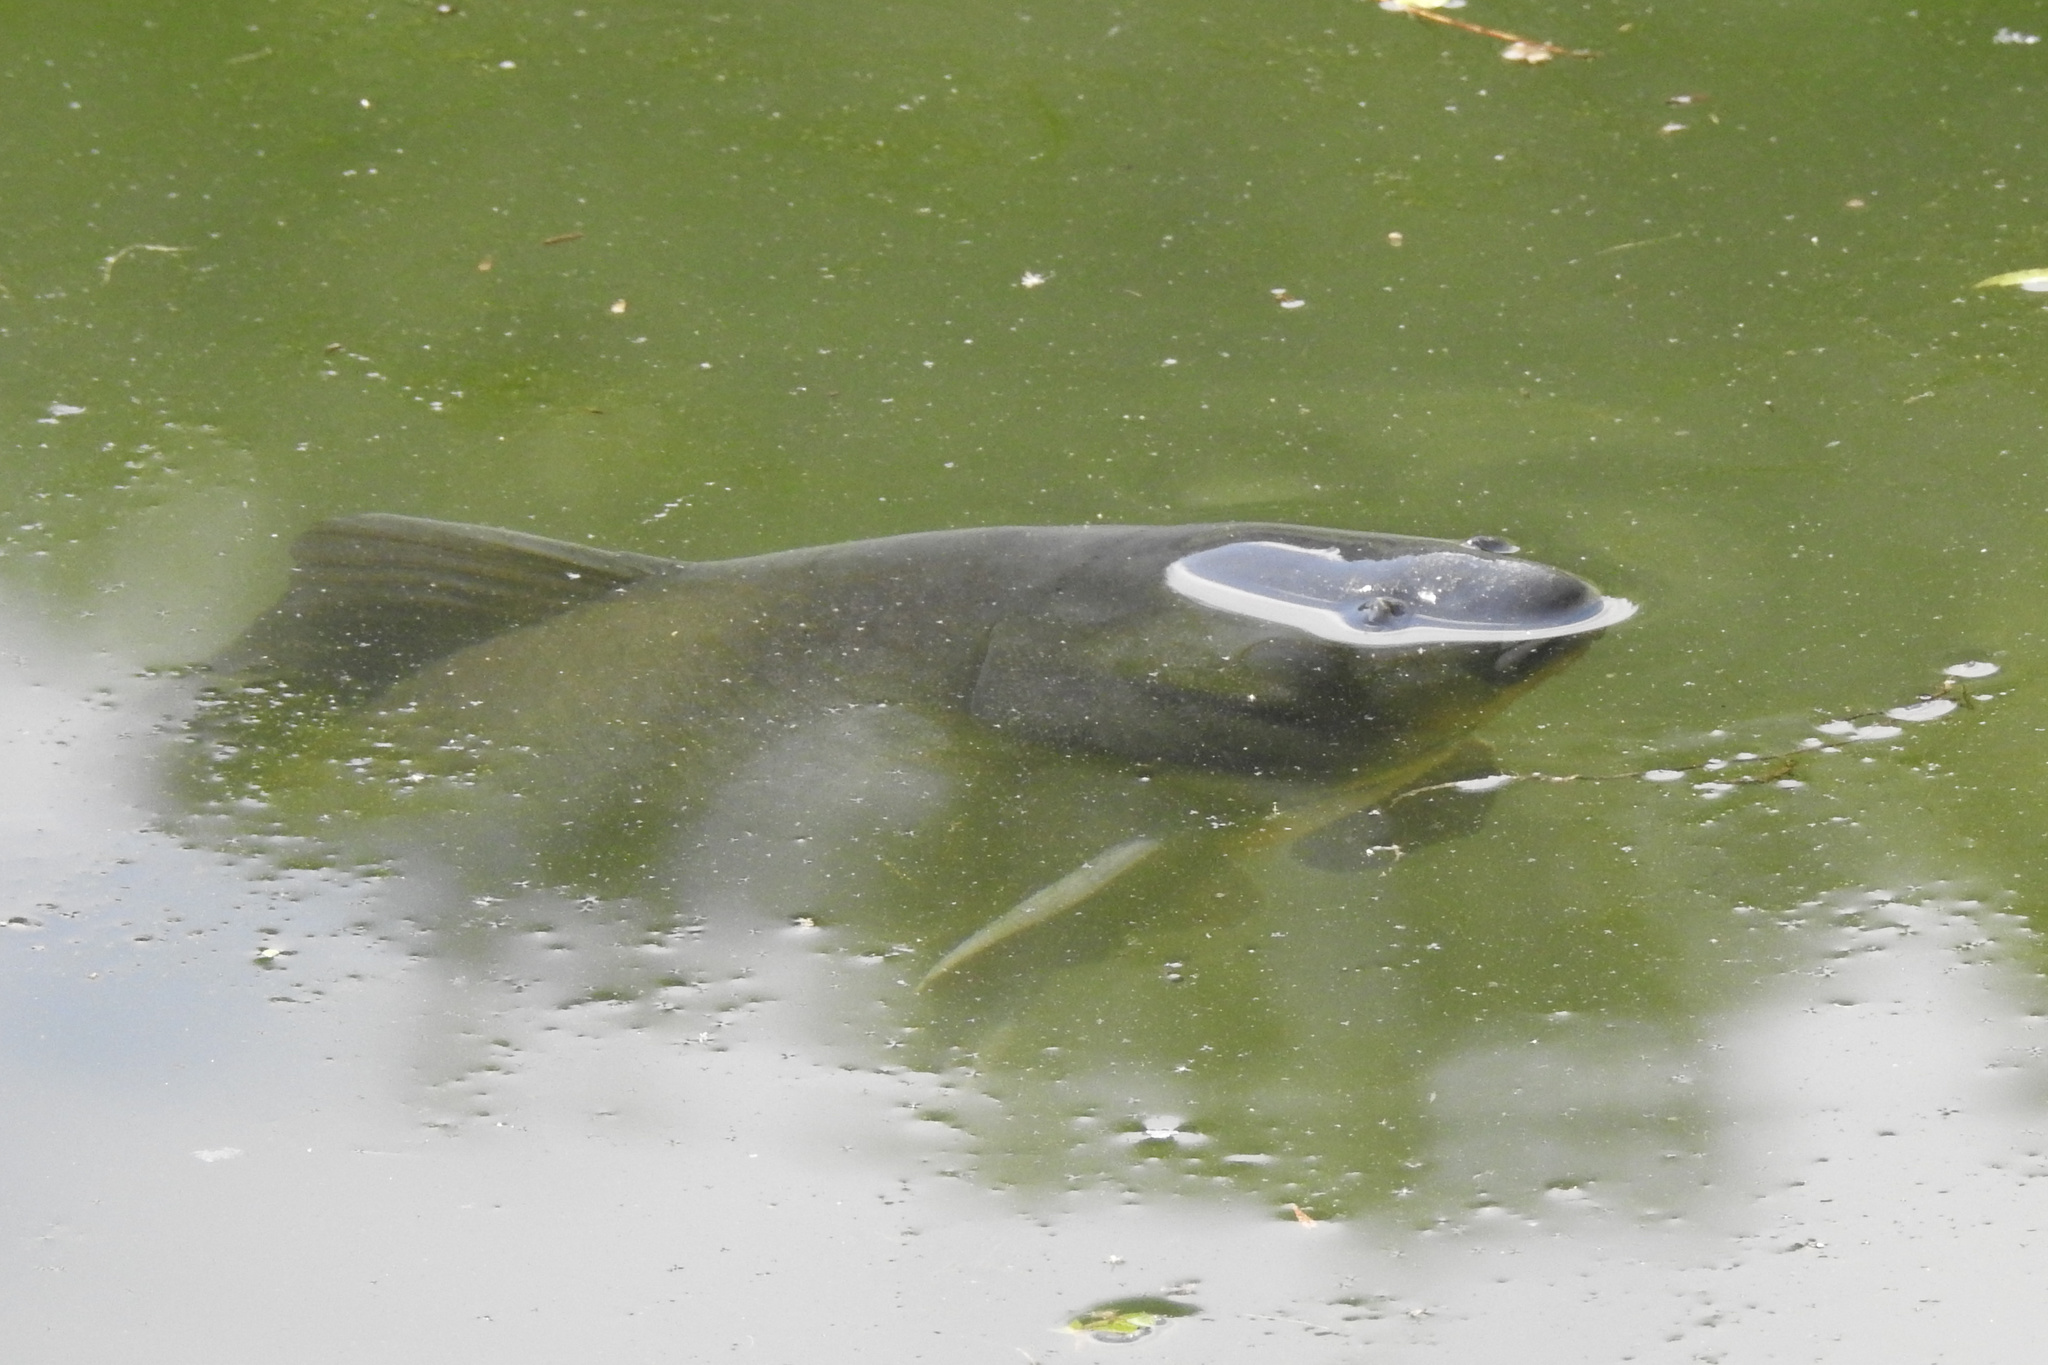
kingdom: Animalia
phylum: Chordata
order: Cypriniformes
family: Cyprinidae
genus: Cyprinus
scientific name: Cyprinus carpio
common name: Common carp
